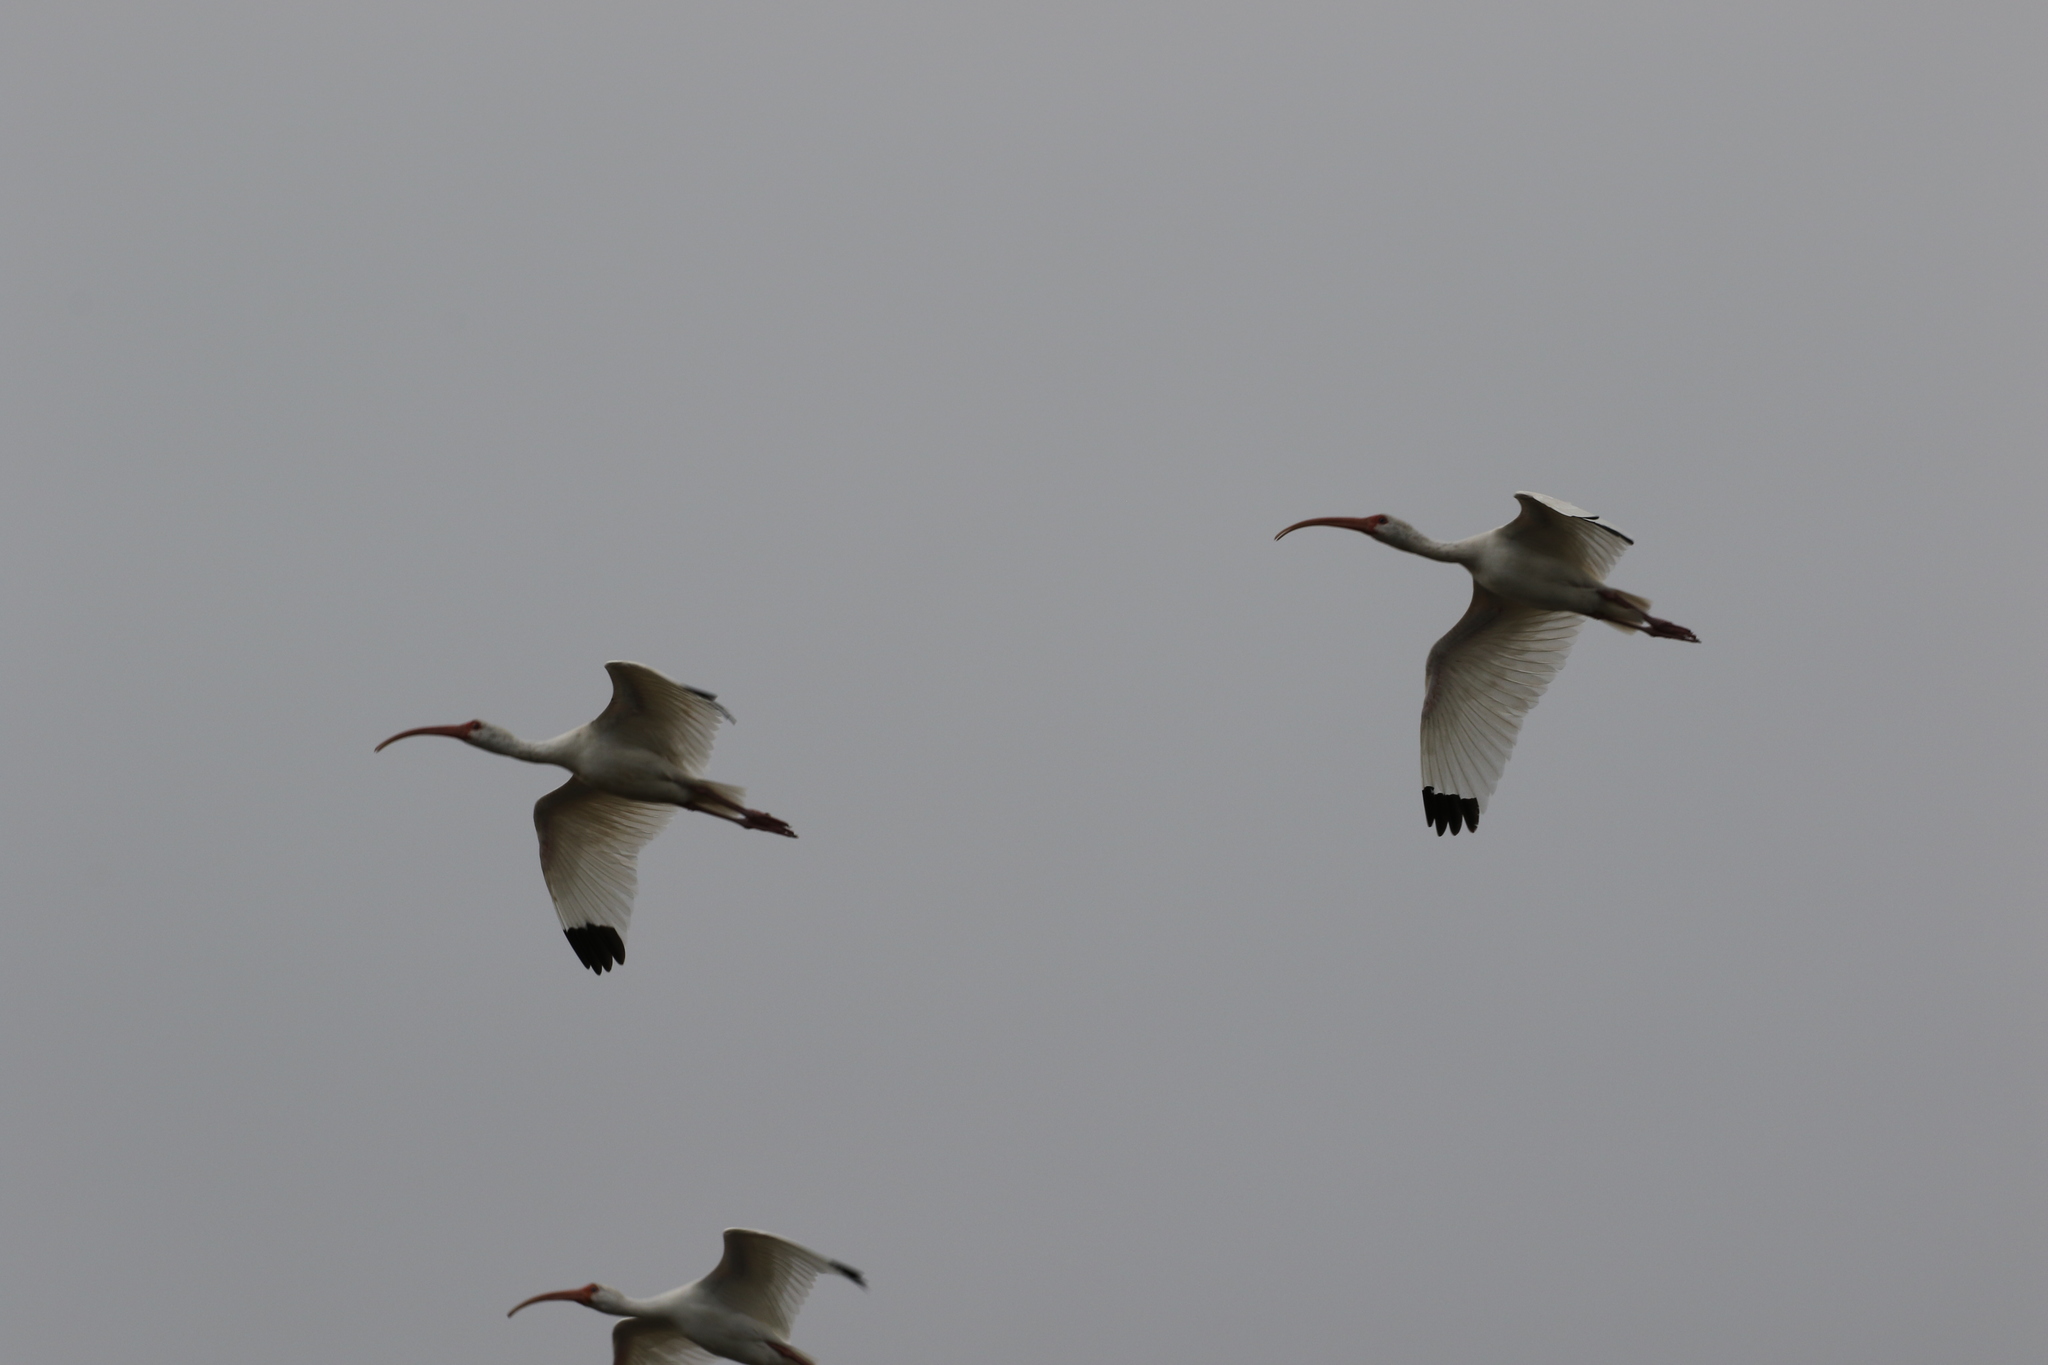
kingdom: Animalia
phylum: Chordata
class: Aves
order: Pelecaniformes
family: Threskiornithidae
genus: Eudocimus
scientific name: Eudocimus albus
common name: White ibis
